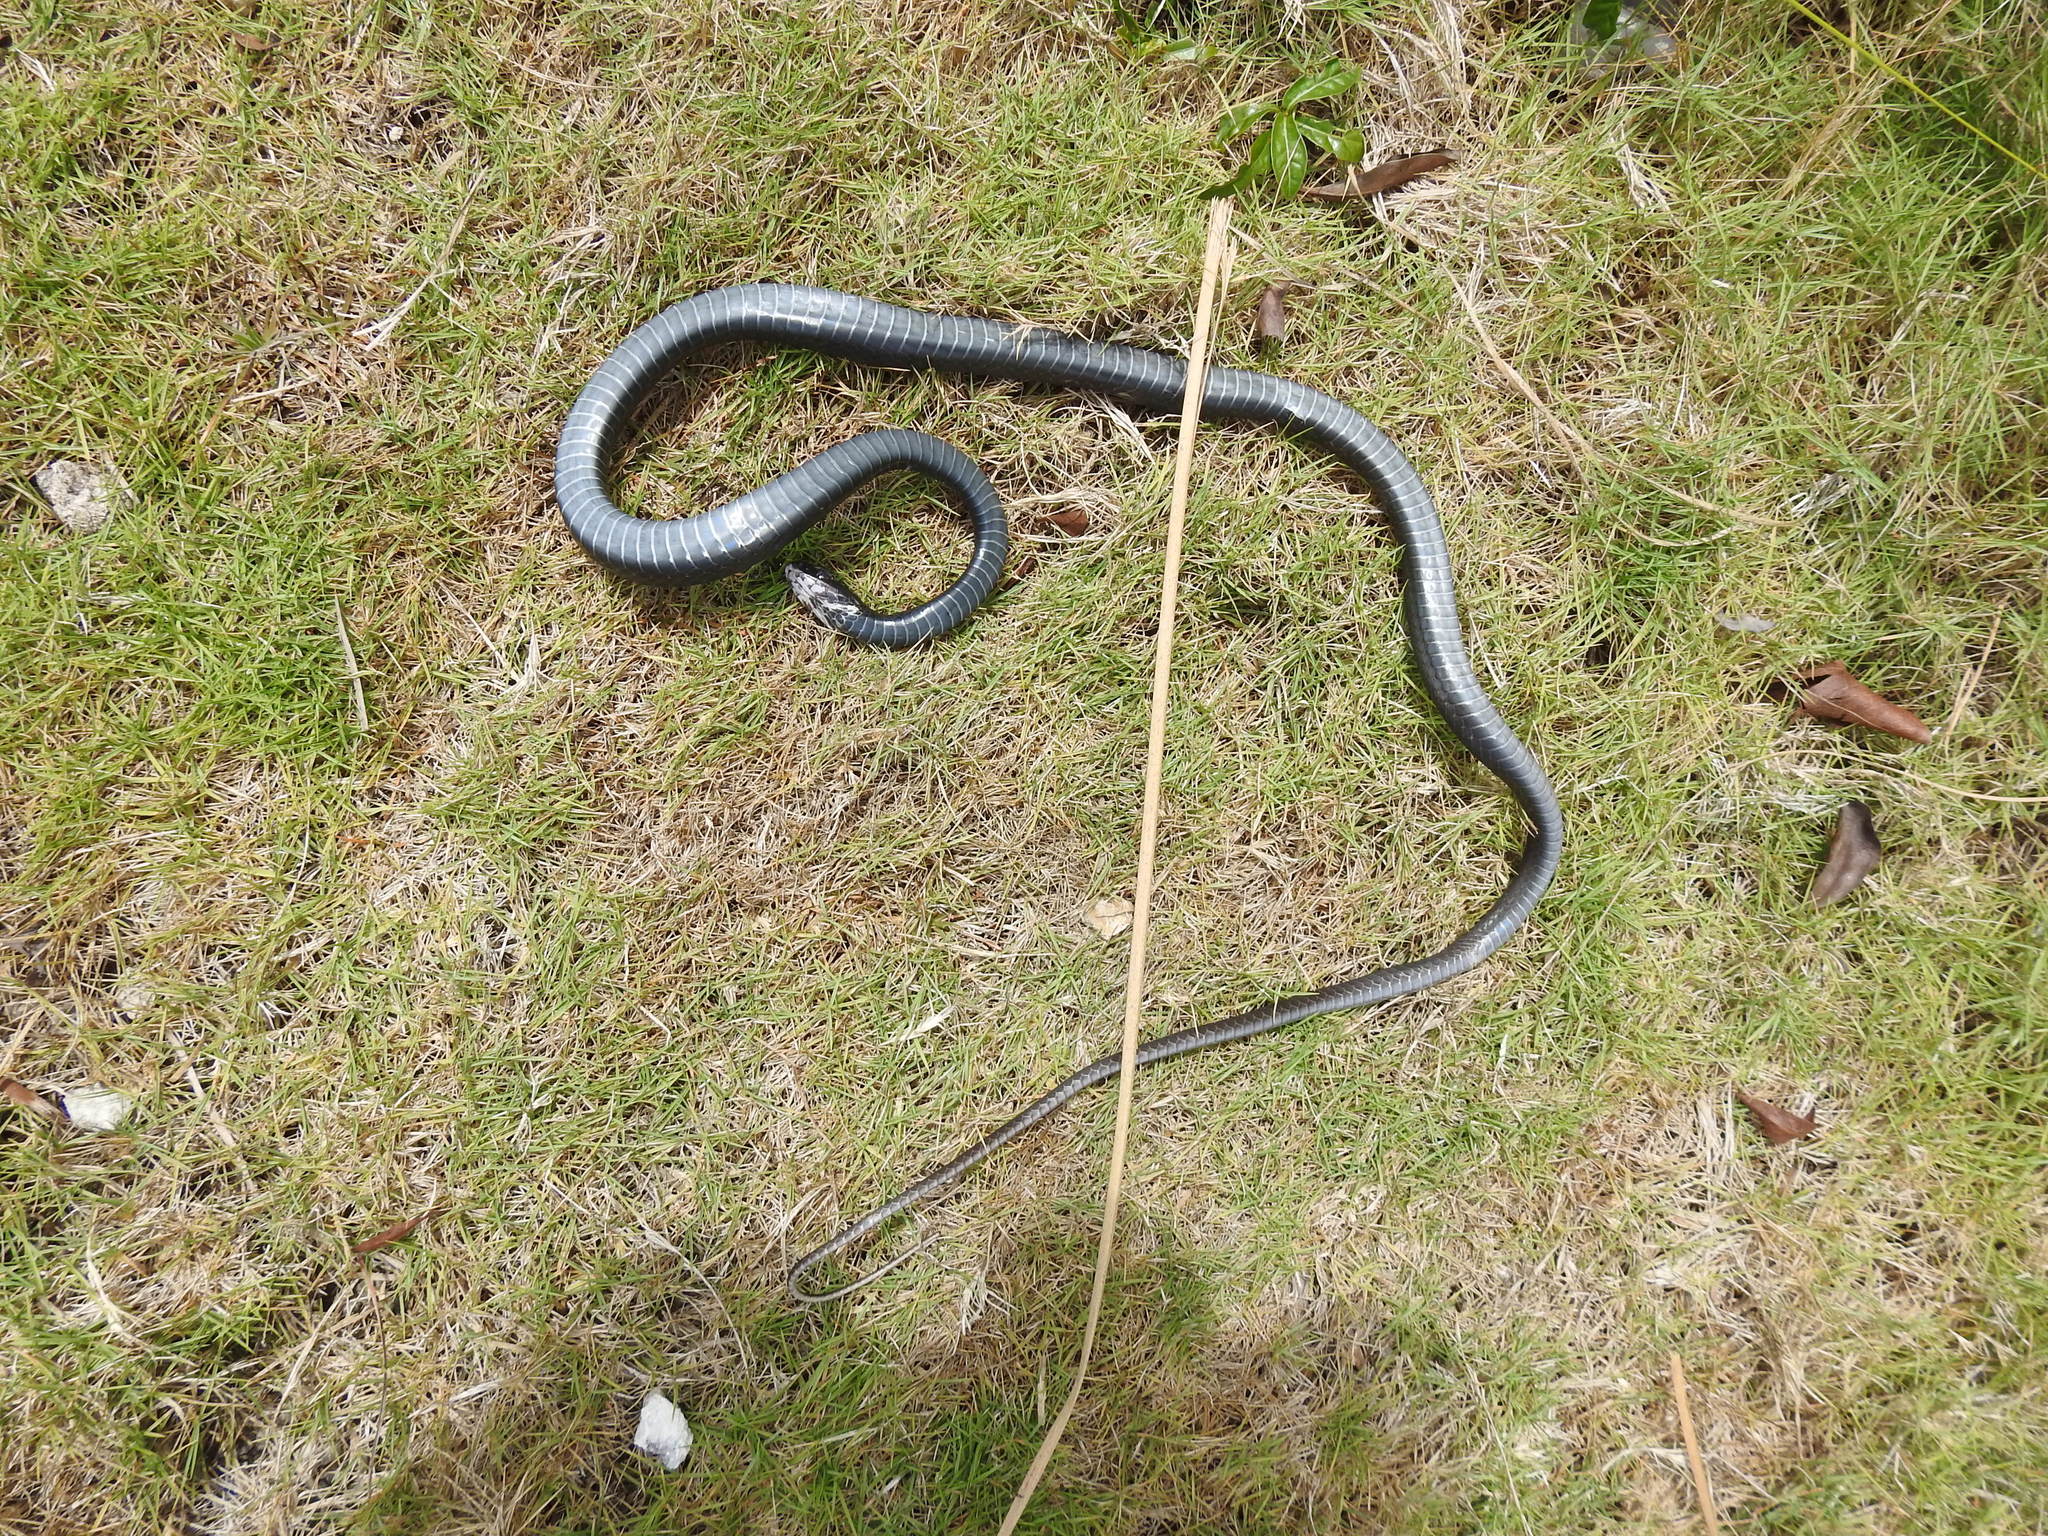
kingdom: Animalia
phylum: Chordata
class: Squamata
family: Colubridae
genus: Coluber
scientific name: Coluber constrictor
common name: Eastern racer
